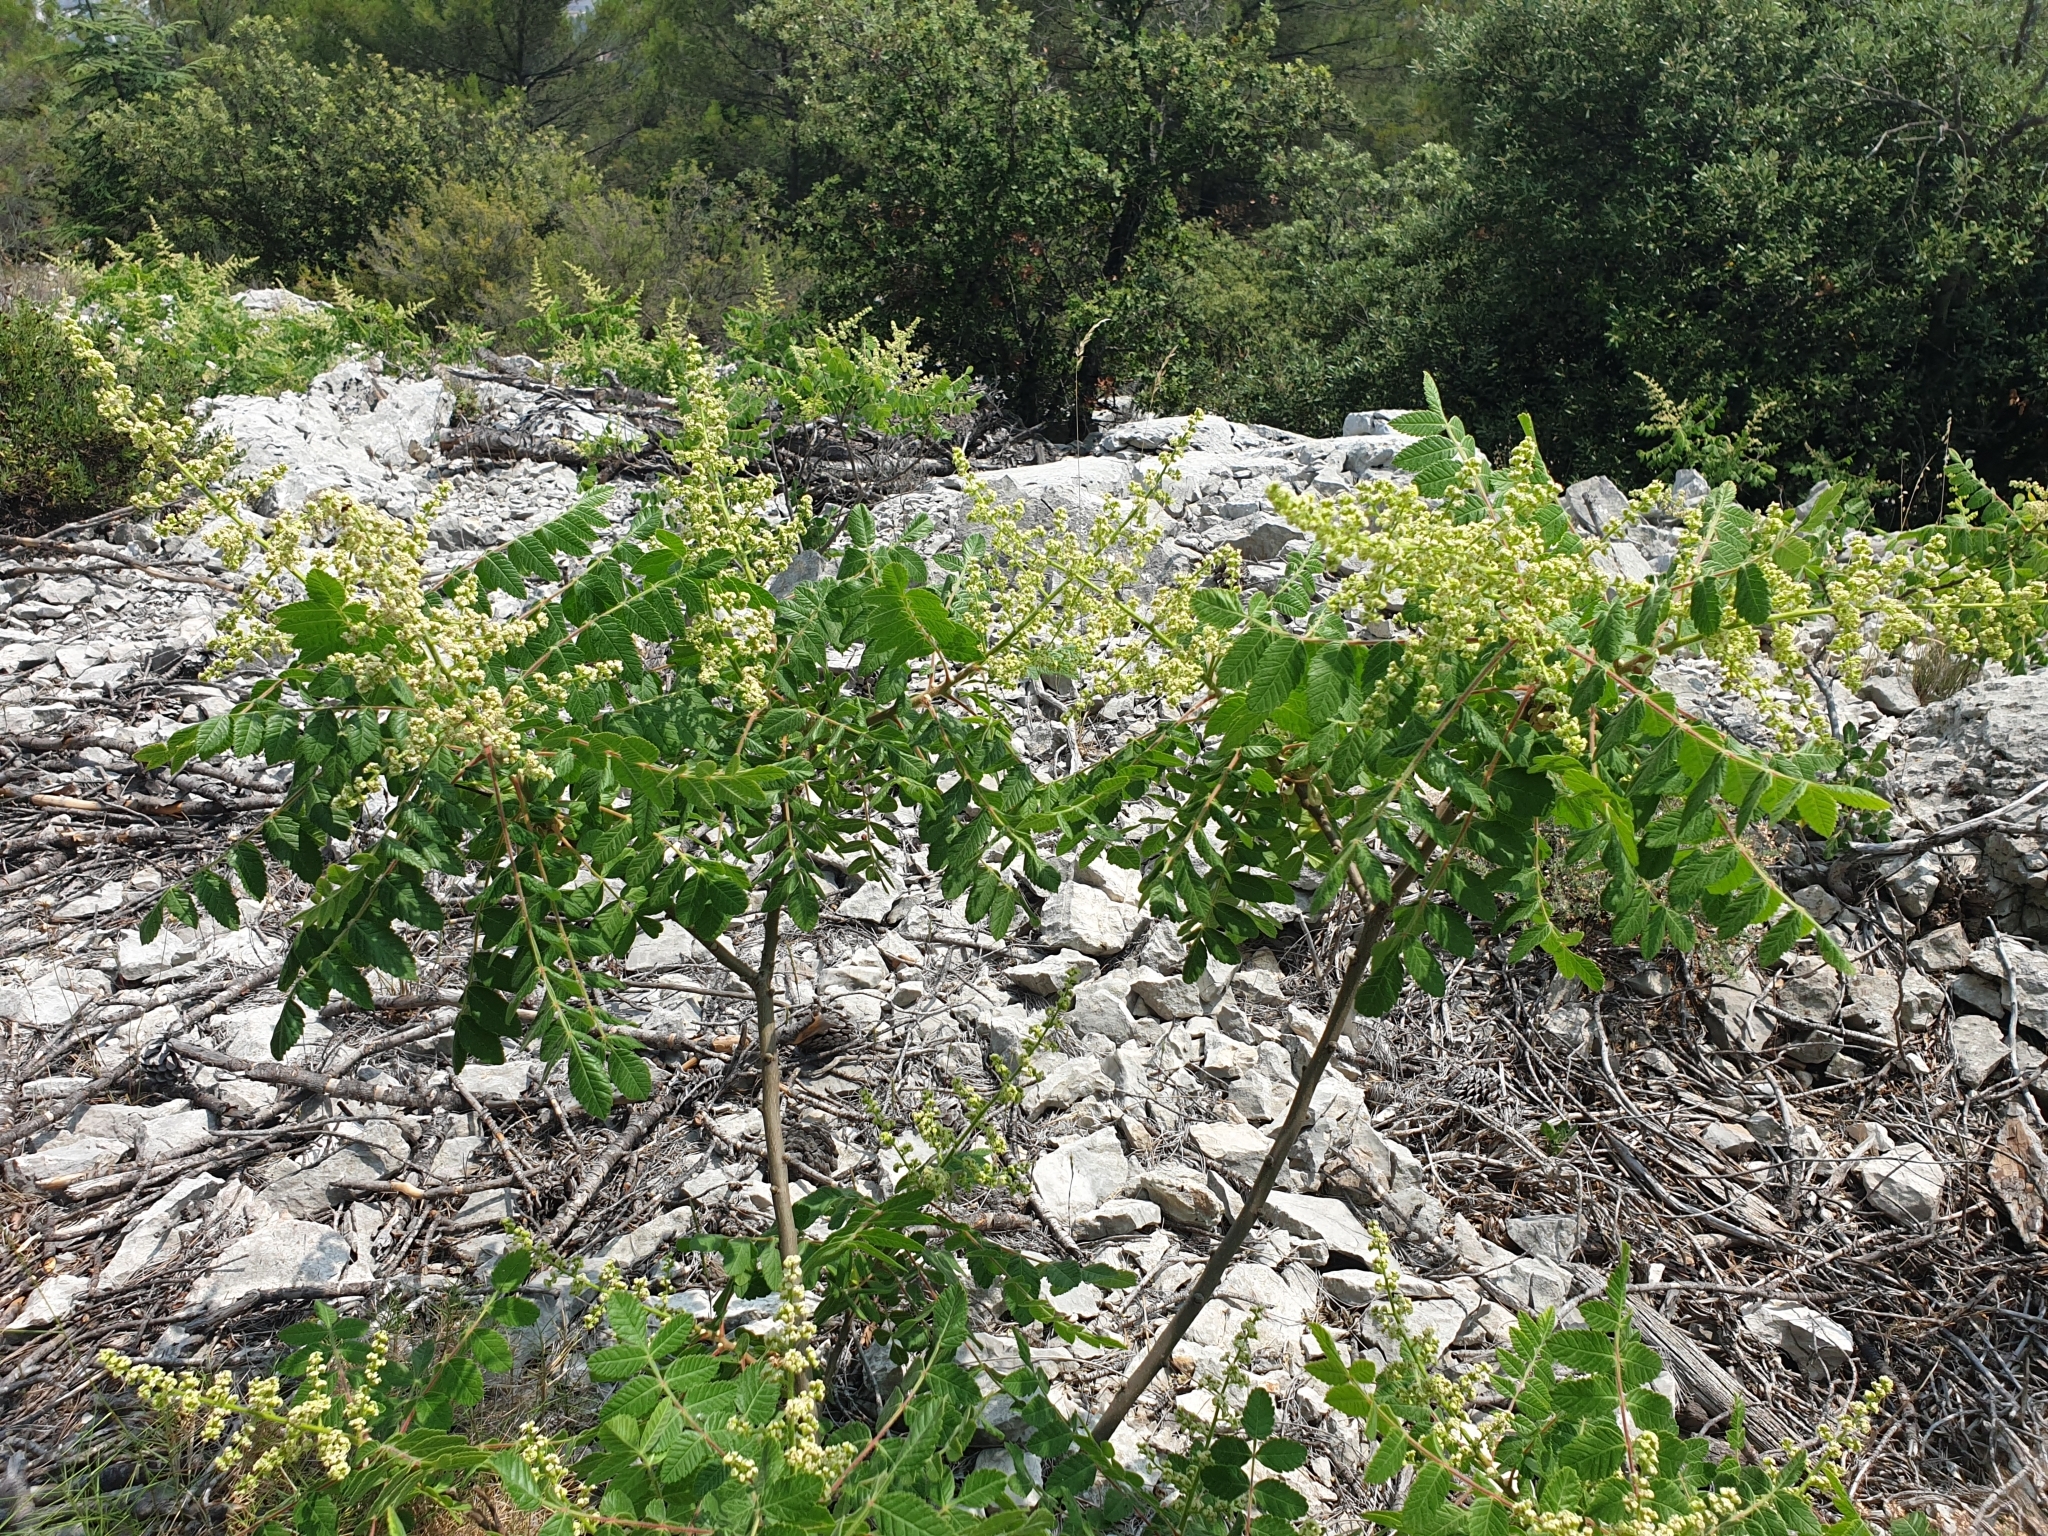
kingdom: Plantae
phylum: Tracheophyta
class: Magnoliopsida
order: Sapindales
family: Anacardiaceae
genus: Rhus
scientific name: Rhus coriaria
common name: Tanner's sumach
